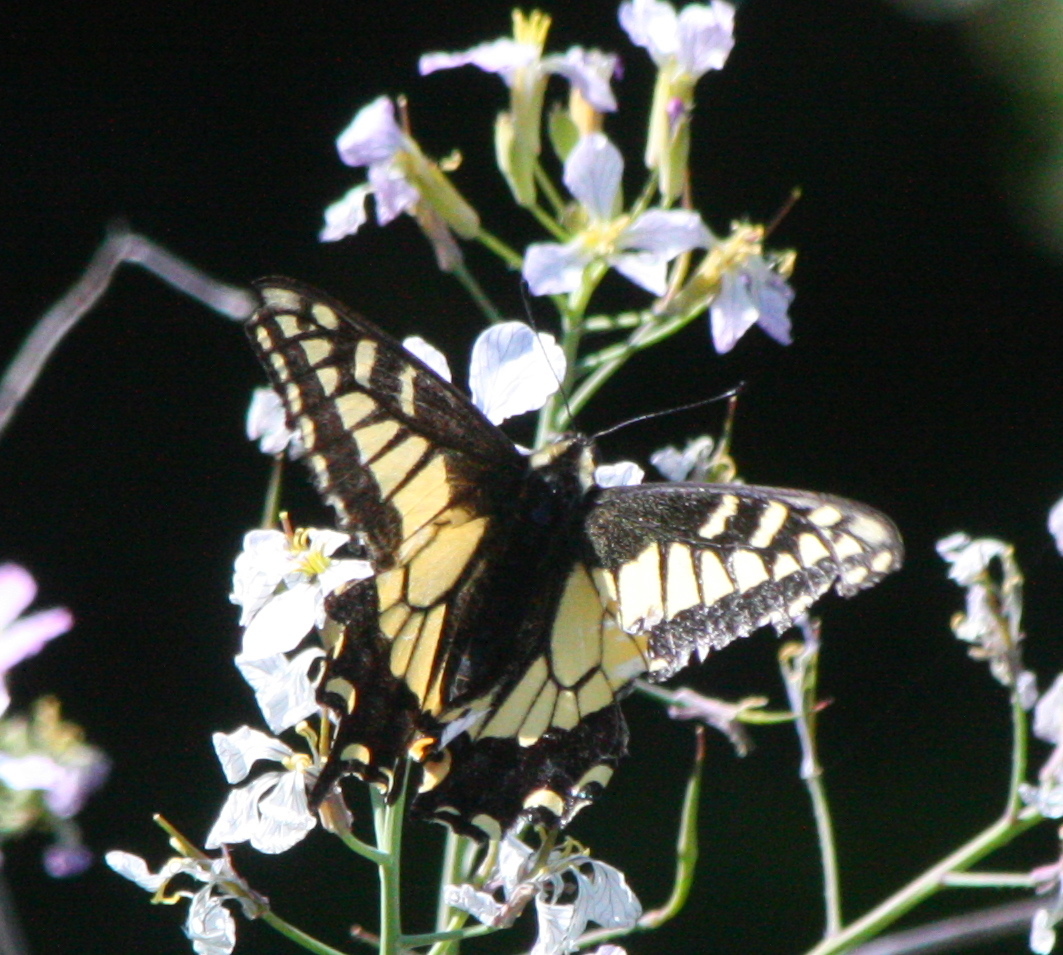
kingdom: Animalia
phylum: Arthropoda
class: Insecta
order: Lepidoptera
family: Papilionidae
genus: Papilio
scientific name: Papilio zelicaon
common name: Anise swallowtail
